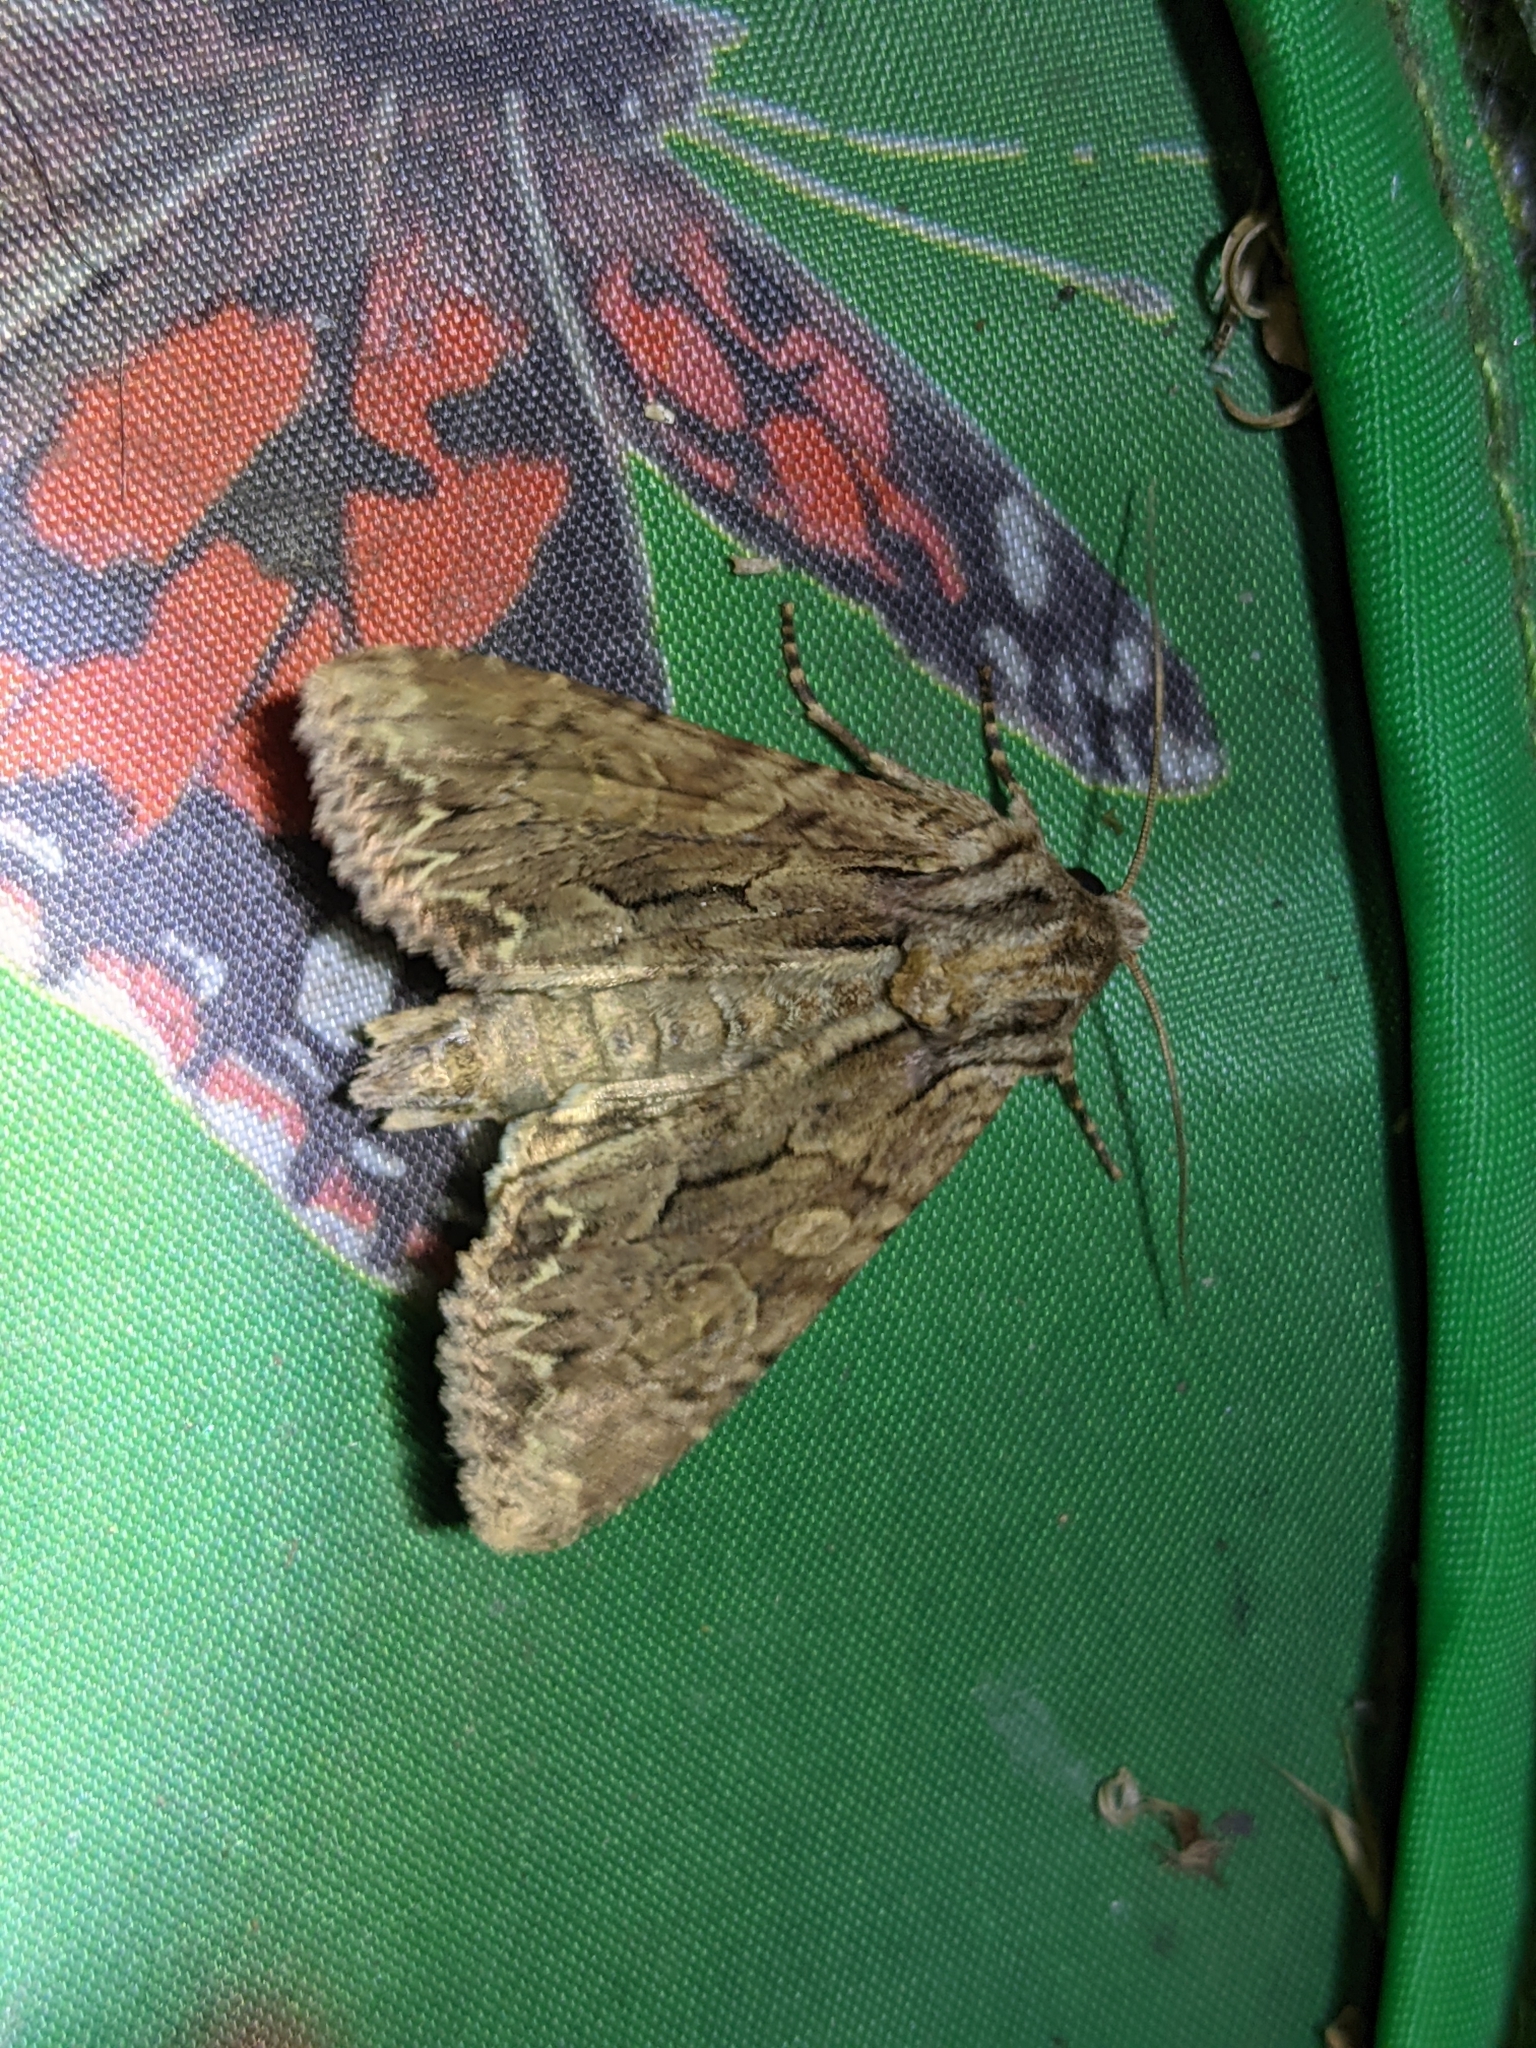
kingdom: Animalia
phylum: Arthropoda
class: Insecta
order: Lepidoptera
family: Noctuidae
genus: Apamea
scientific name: Apamea monoglypha
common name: Dark arches
